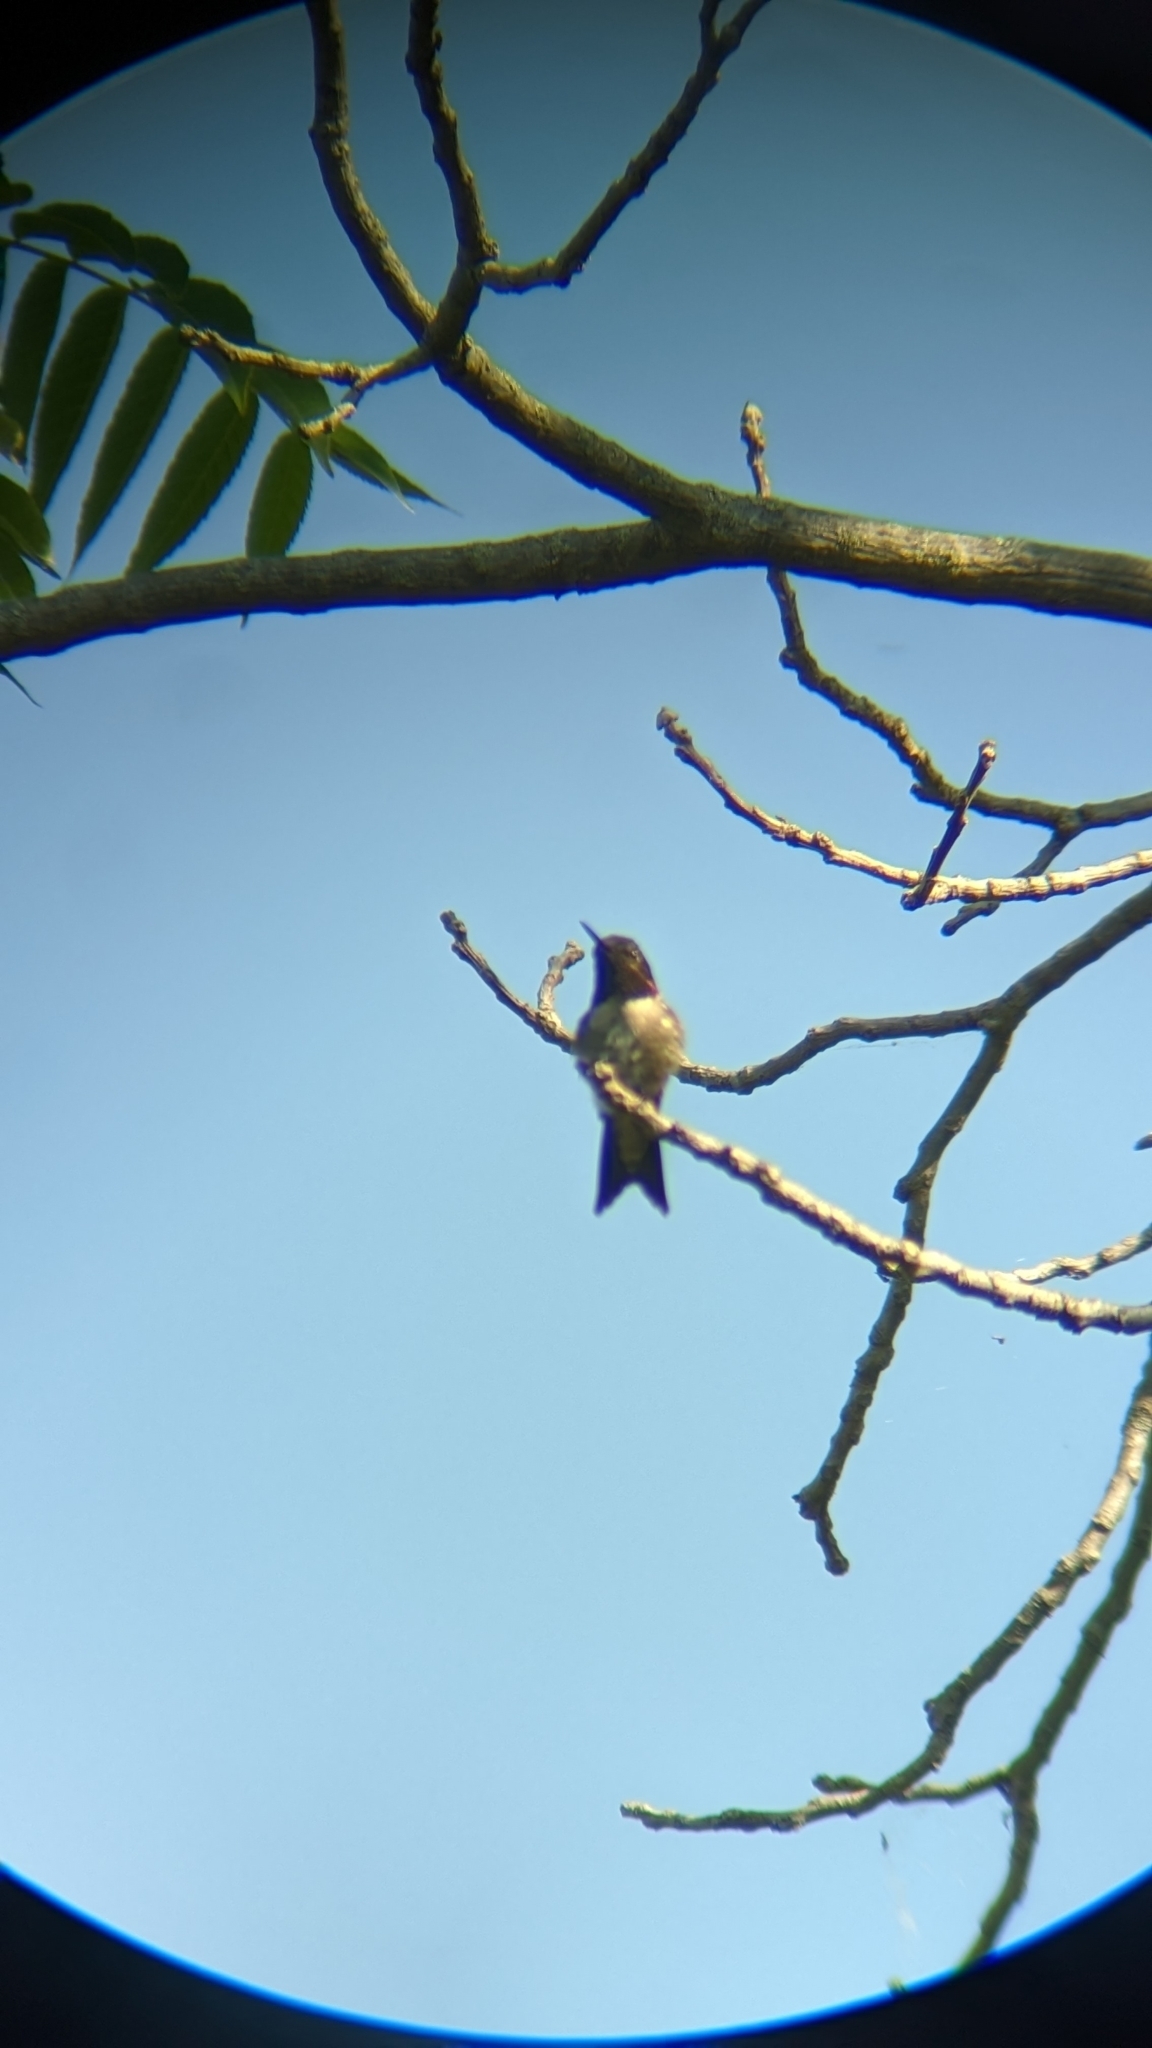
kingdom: Animalia
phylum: Chordata
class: Aves
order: Apodiformes
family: Trochilidae
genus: Archilochus
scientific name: Archilochus colubris
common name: Ruby-throated hummingbird
